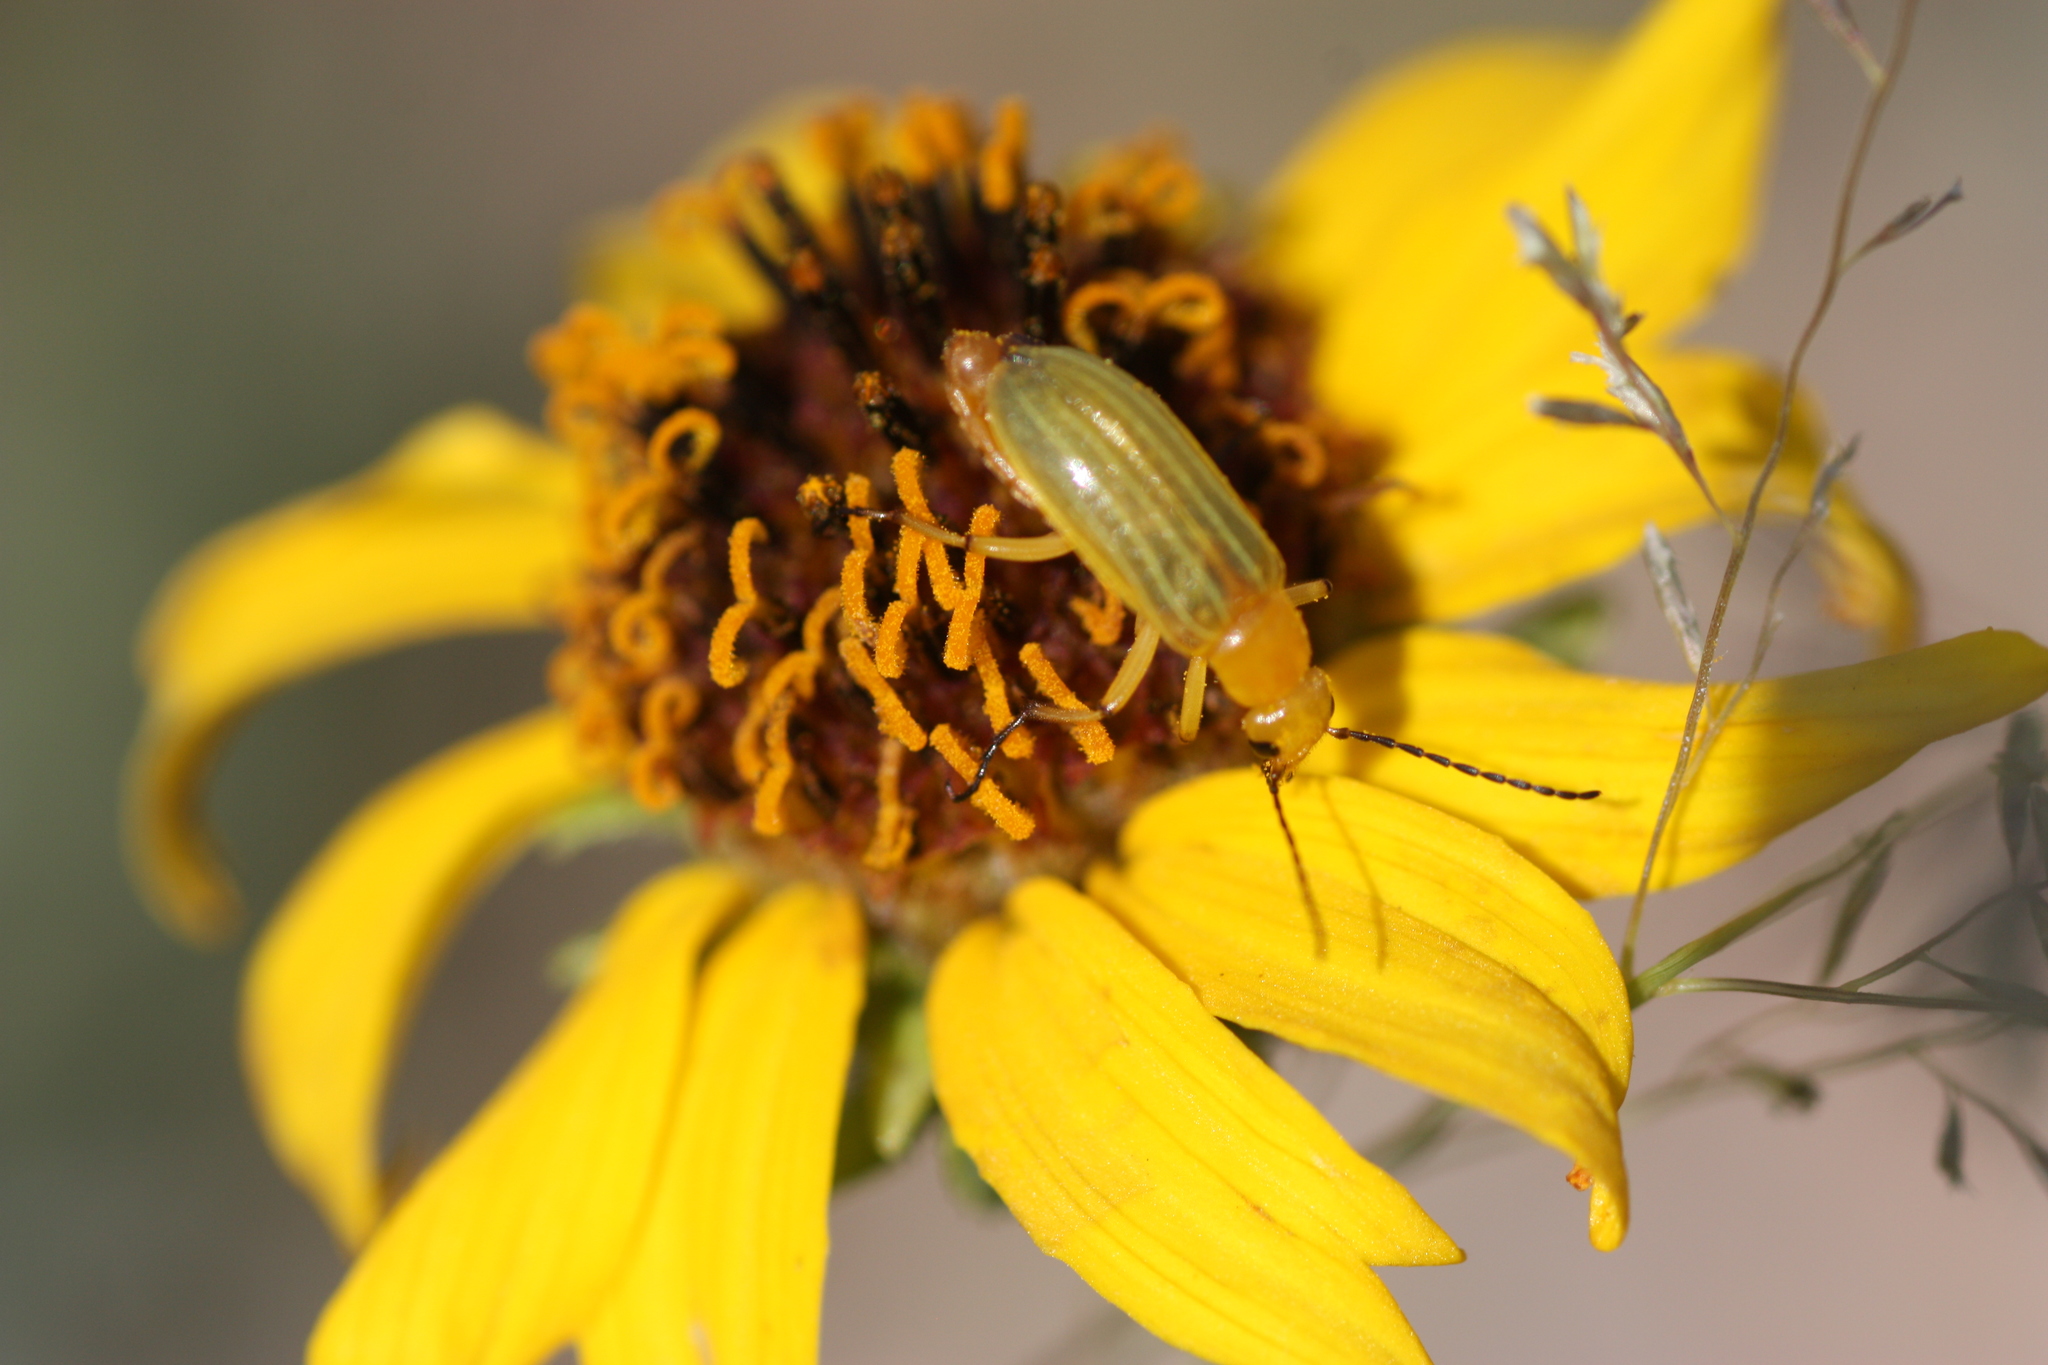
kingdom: Animalia
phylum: Arthropoda
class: Insecta
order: Coleoptera
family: Meloidae
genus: Zonitis
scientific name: Zonitis dunniana
